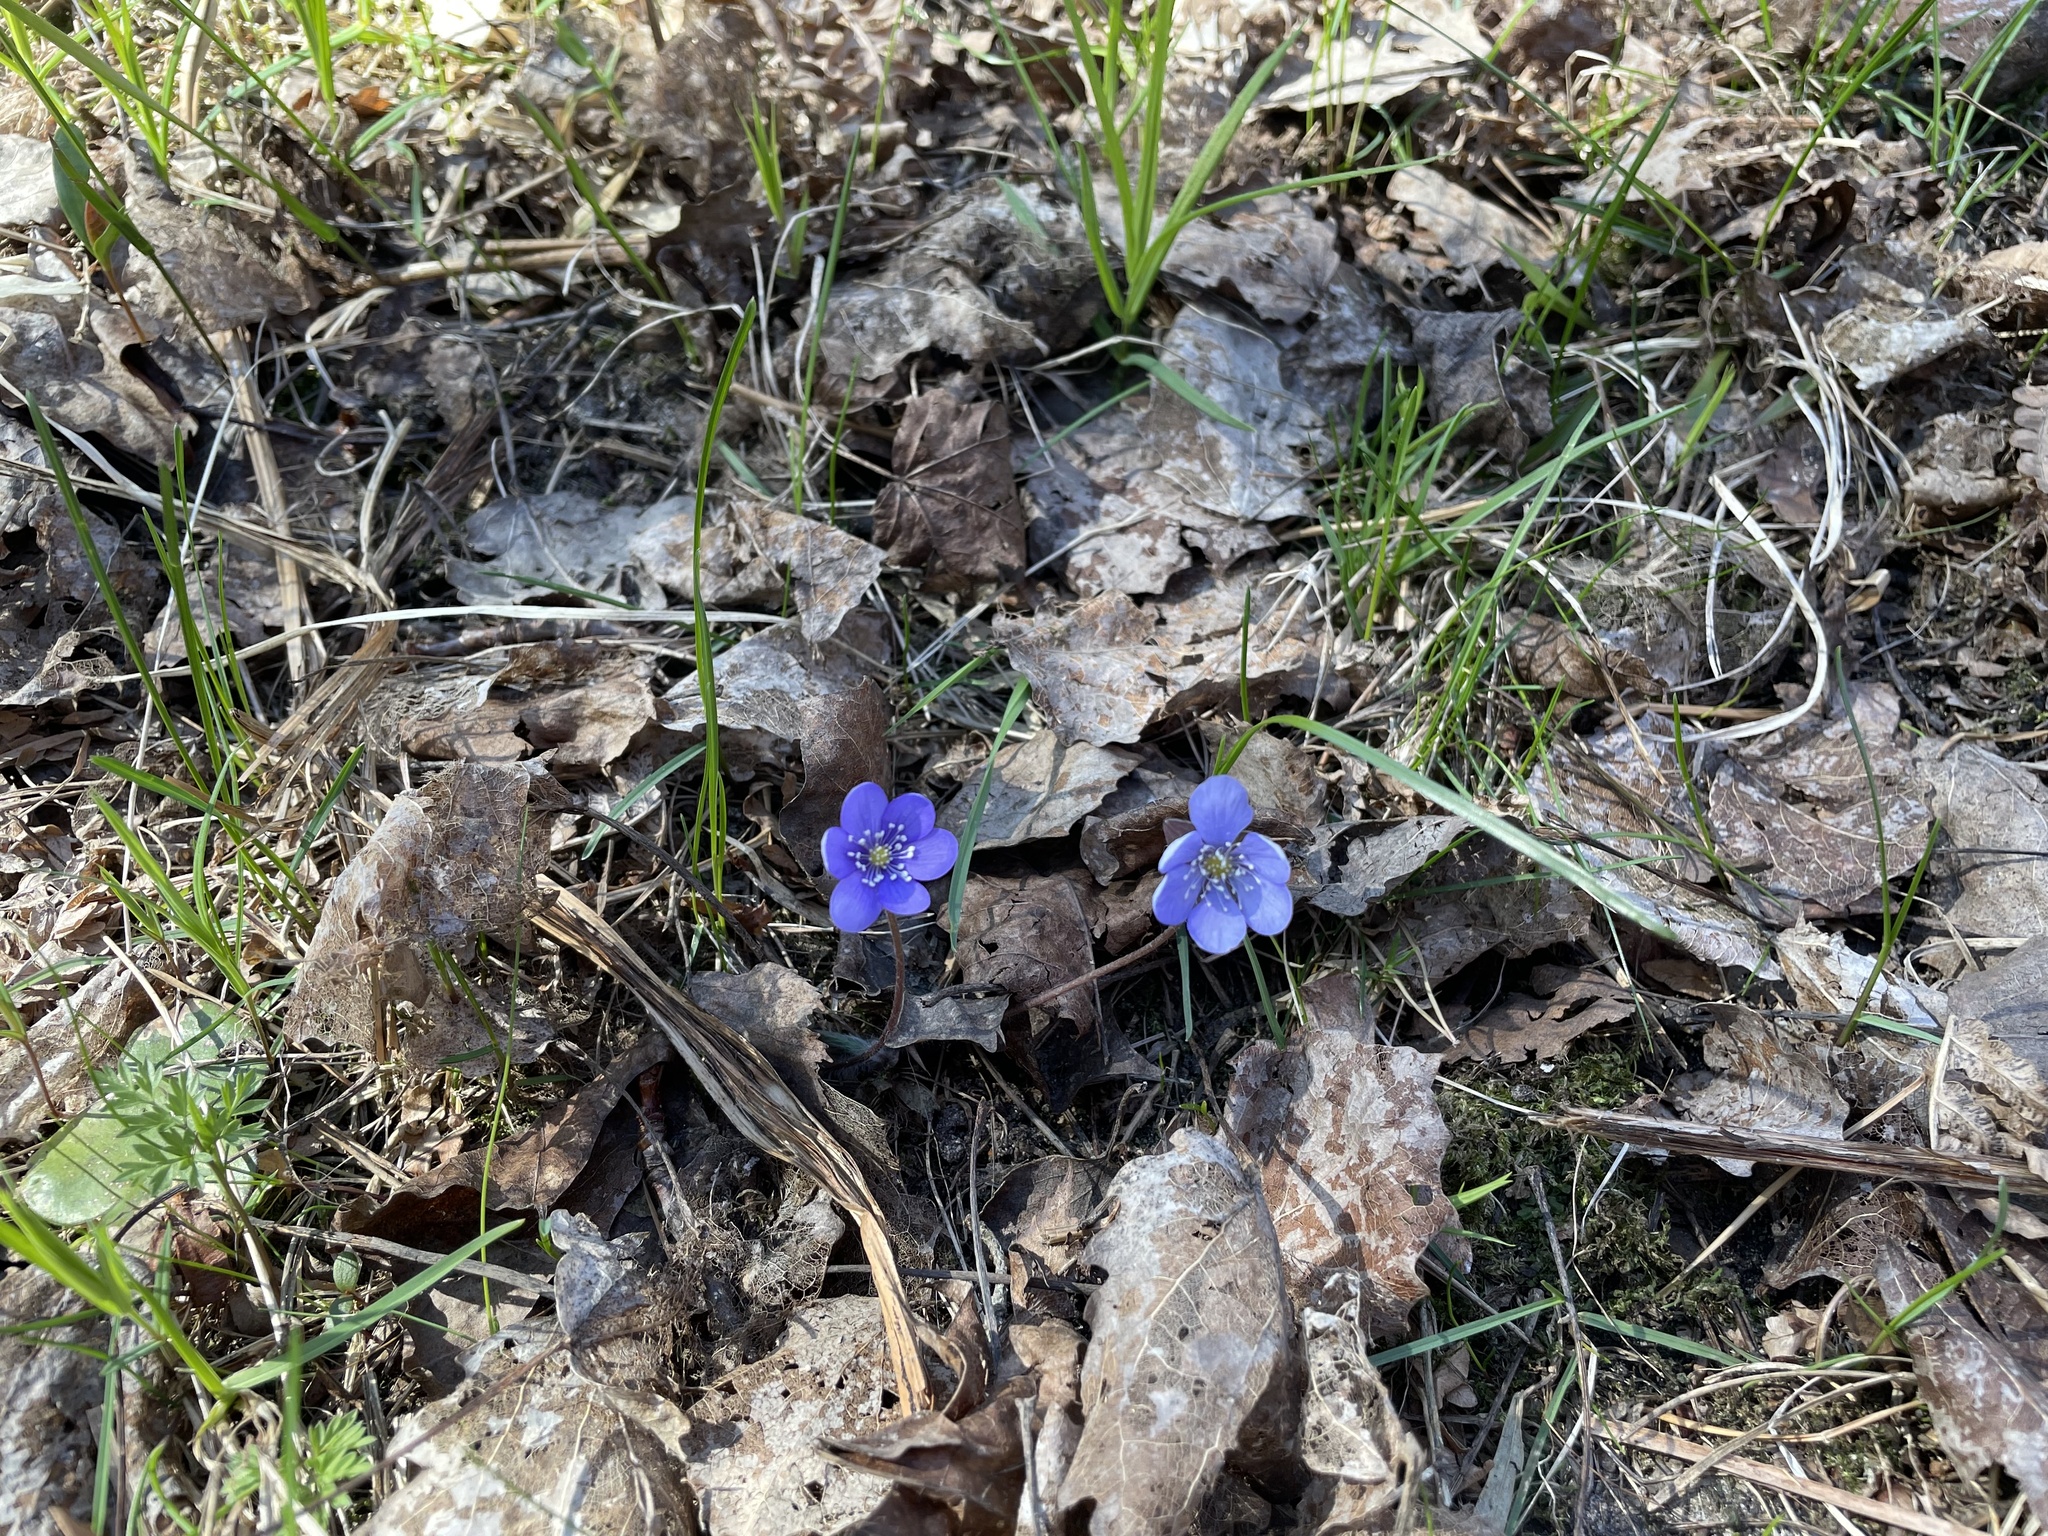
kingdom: Plantae
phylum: Tracheophyta
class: Magnoliopsida
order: Ranunculales
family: Ranunculaceae
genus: Hepatica
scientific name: Hepatica nobilis
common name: Liverleaf
